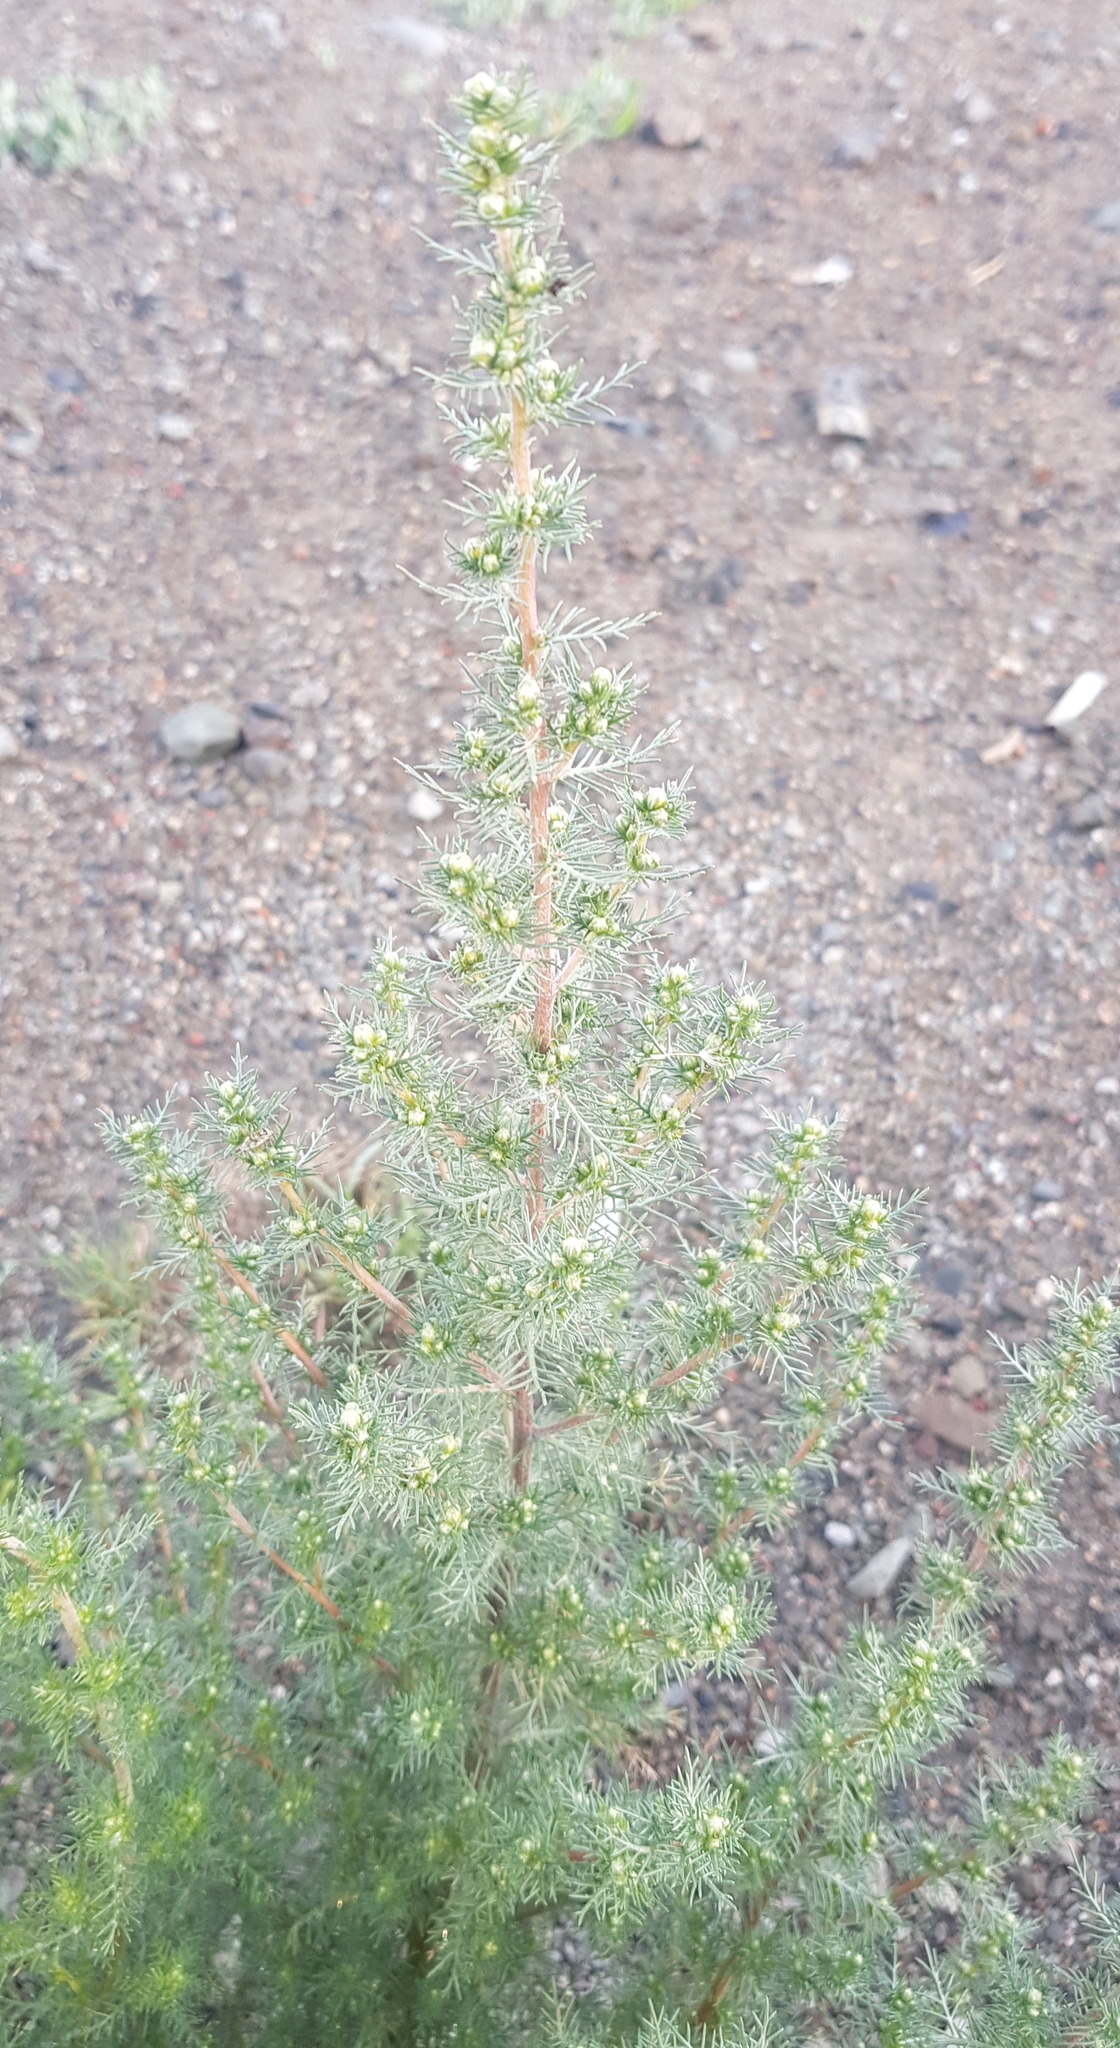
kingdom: Plantae
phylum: Tracheophyta
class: Magnoliopsida
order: Asterales
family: Asteraceae
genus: Neopallasia
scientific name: Neopallasia pectinata
